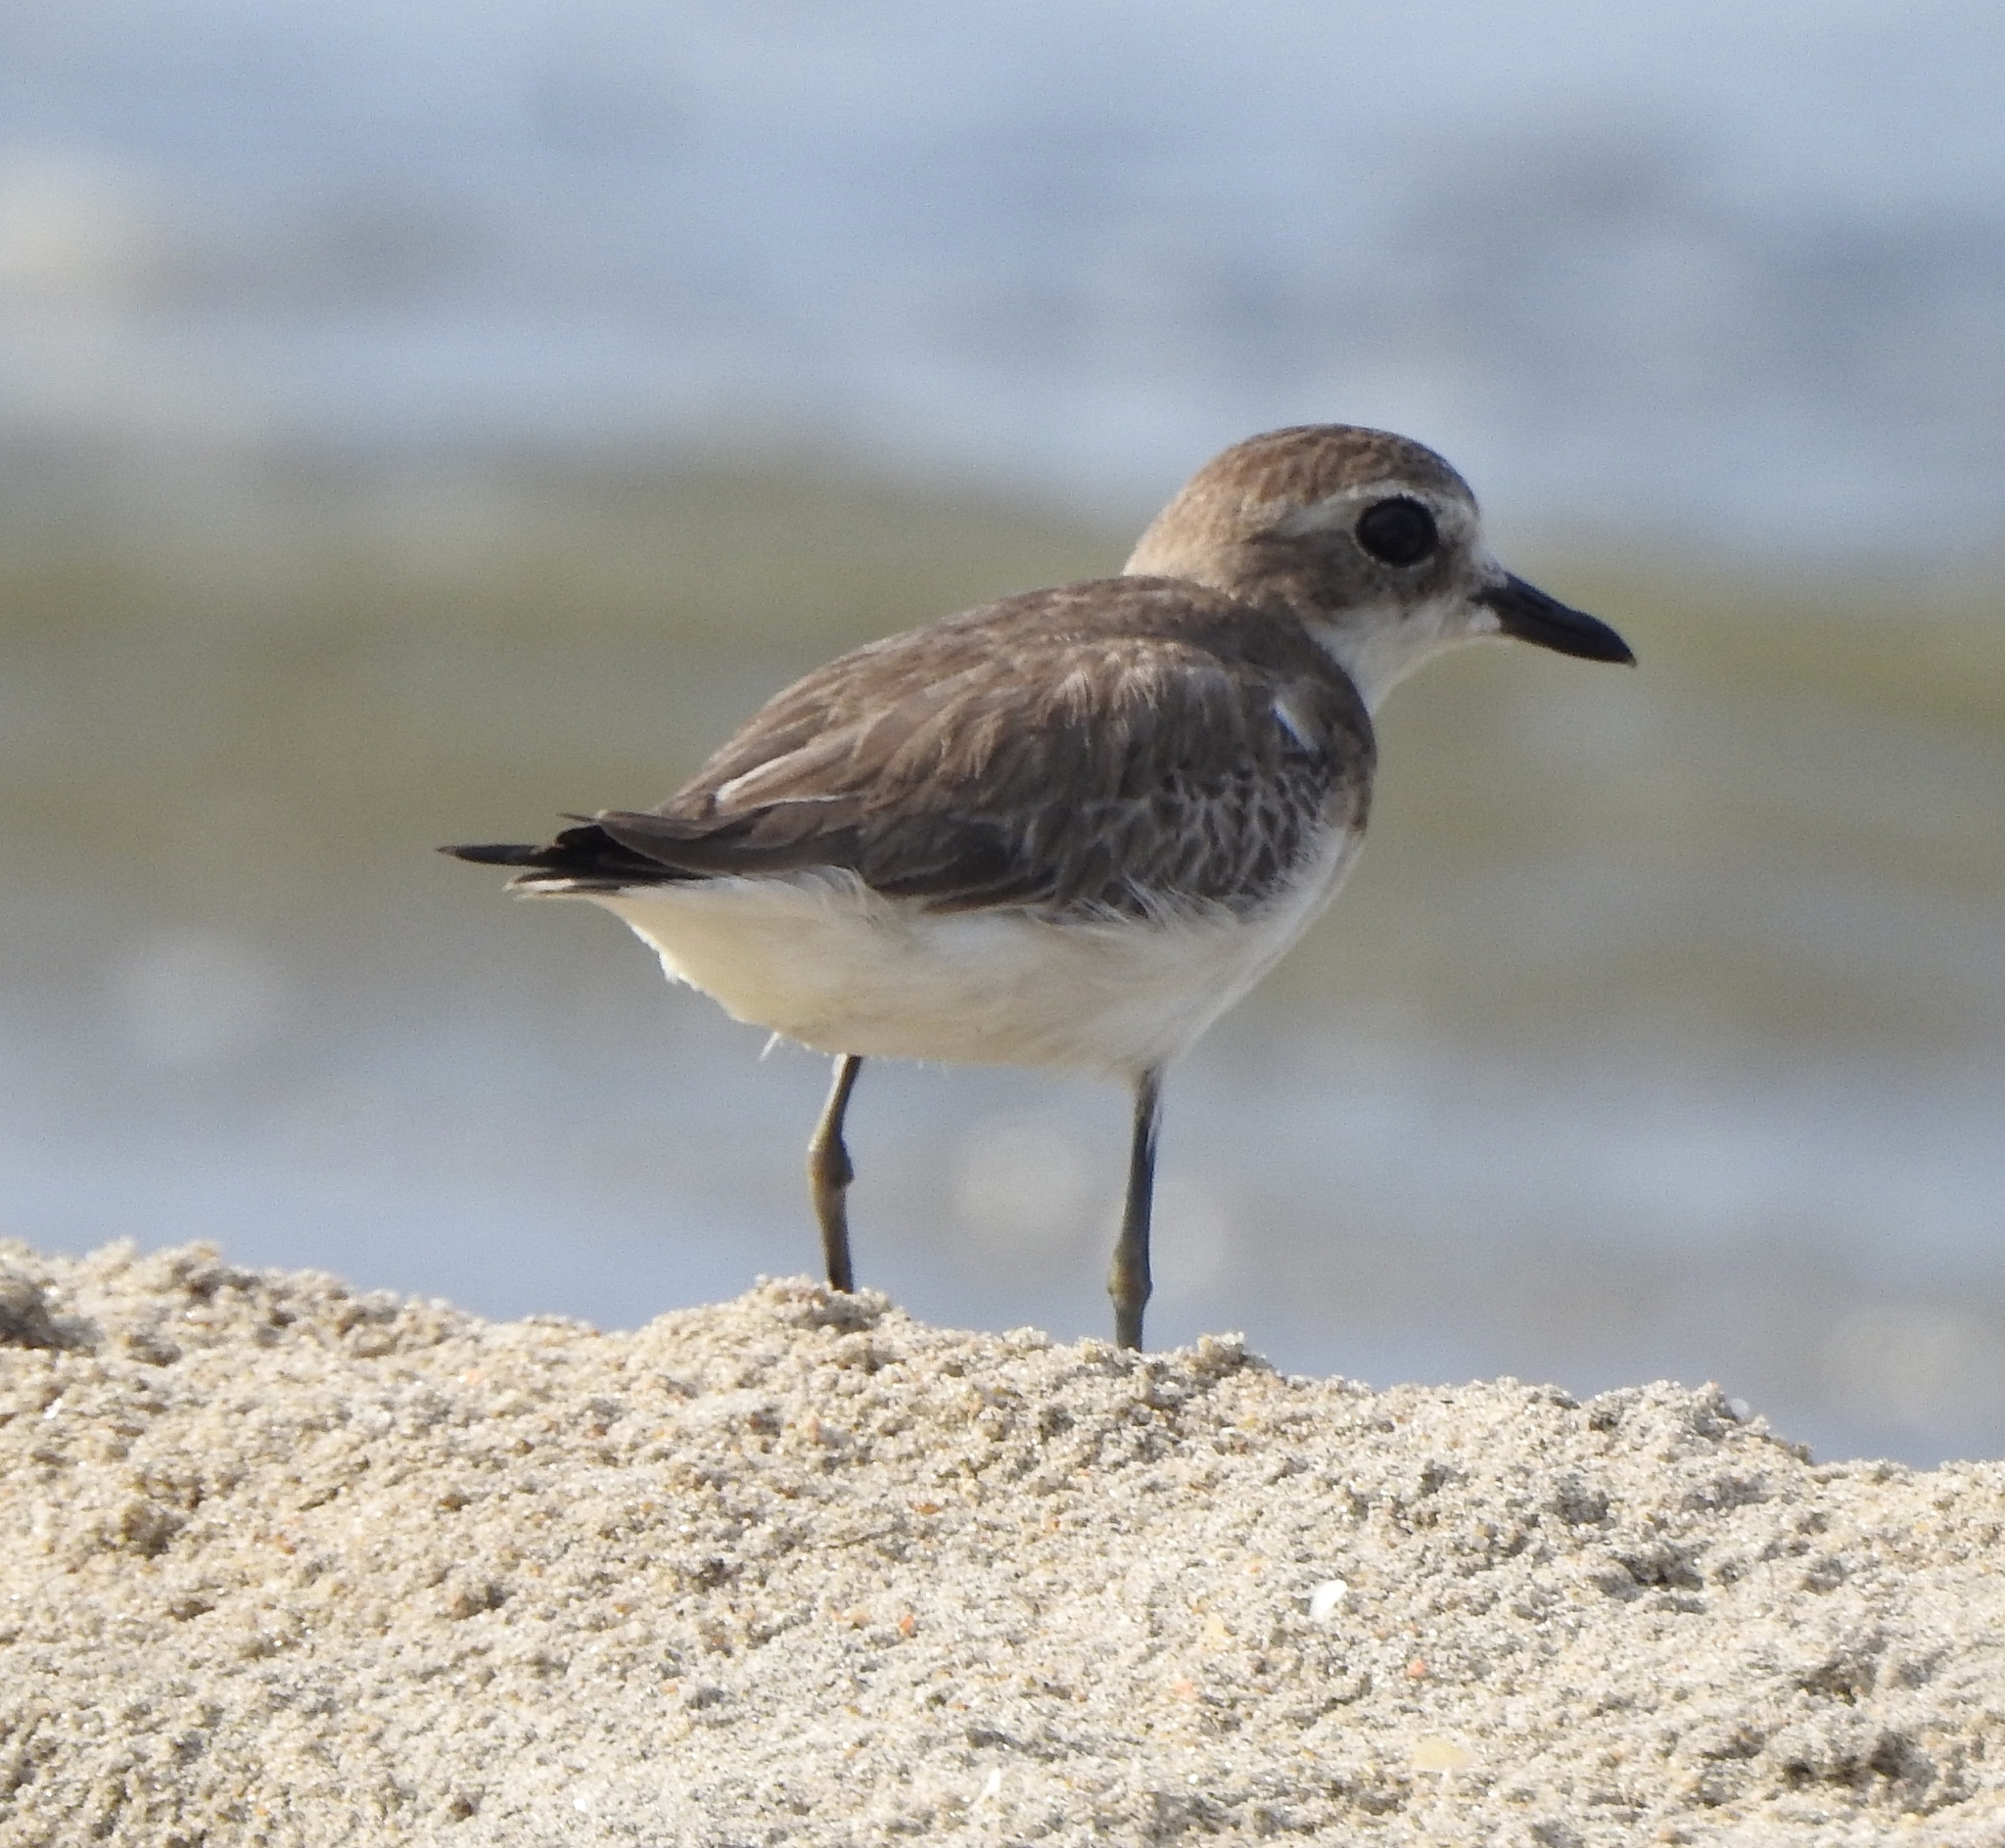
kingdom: Animalia
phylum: Chordata
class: Aves
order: Charadriiformes
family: Charadriidae
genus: Anarhynchus
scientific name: Anarhynchus
